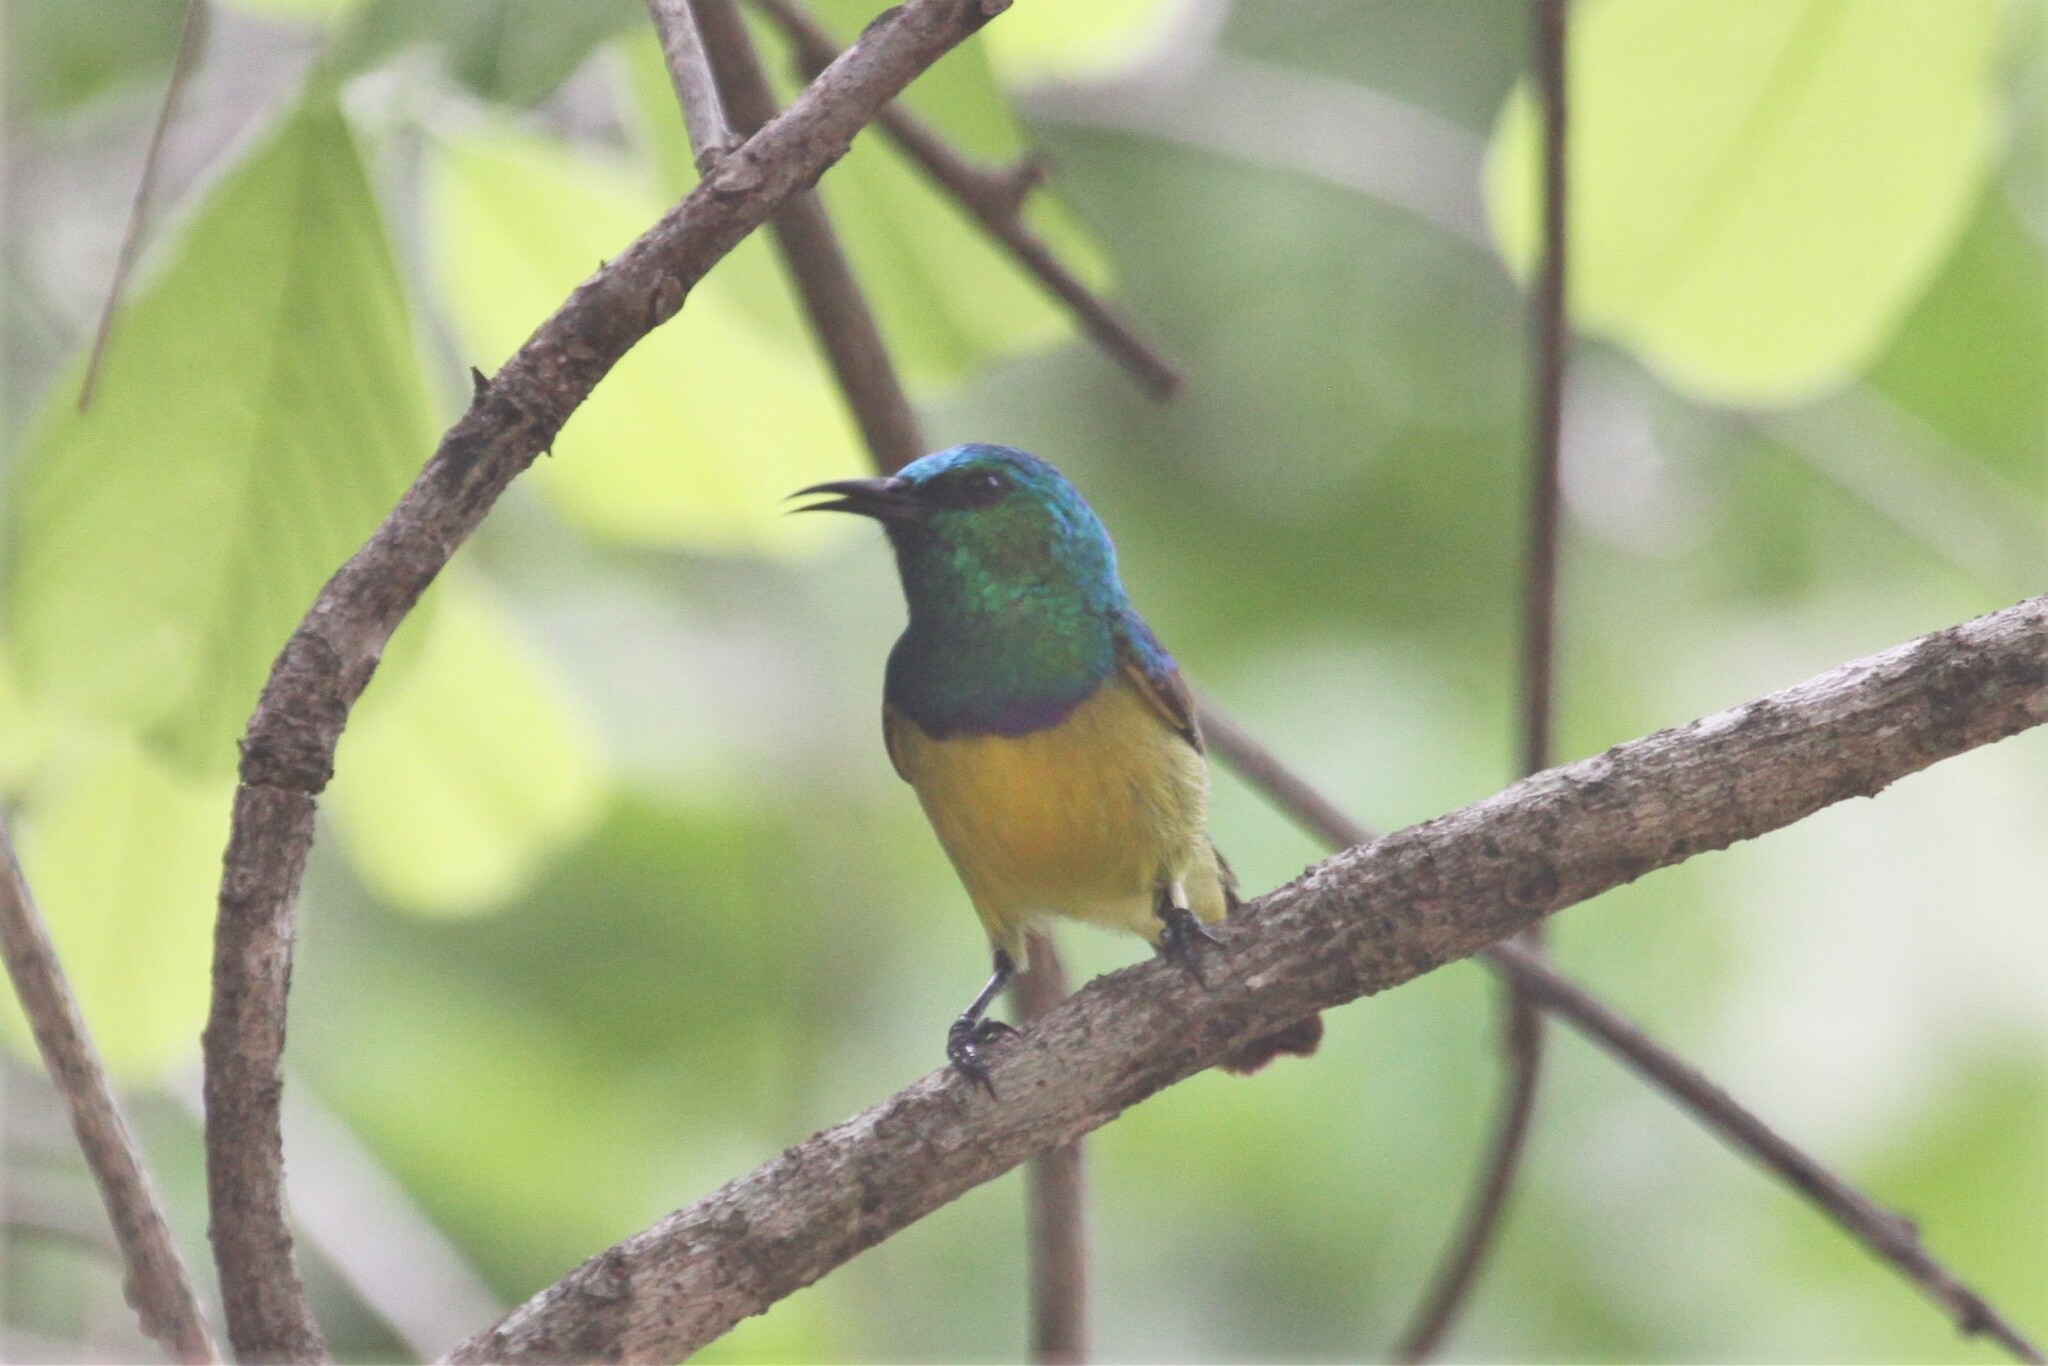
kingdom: Animalia
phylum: Chordata
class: Aves
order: Passeriformes
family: Nectariniidae
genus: Hedydipna
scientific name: Hedydipna collaris
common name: Collared sunbird
